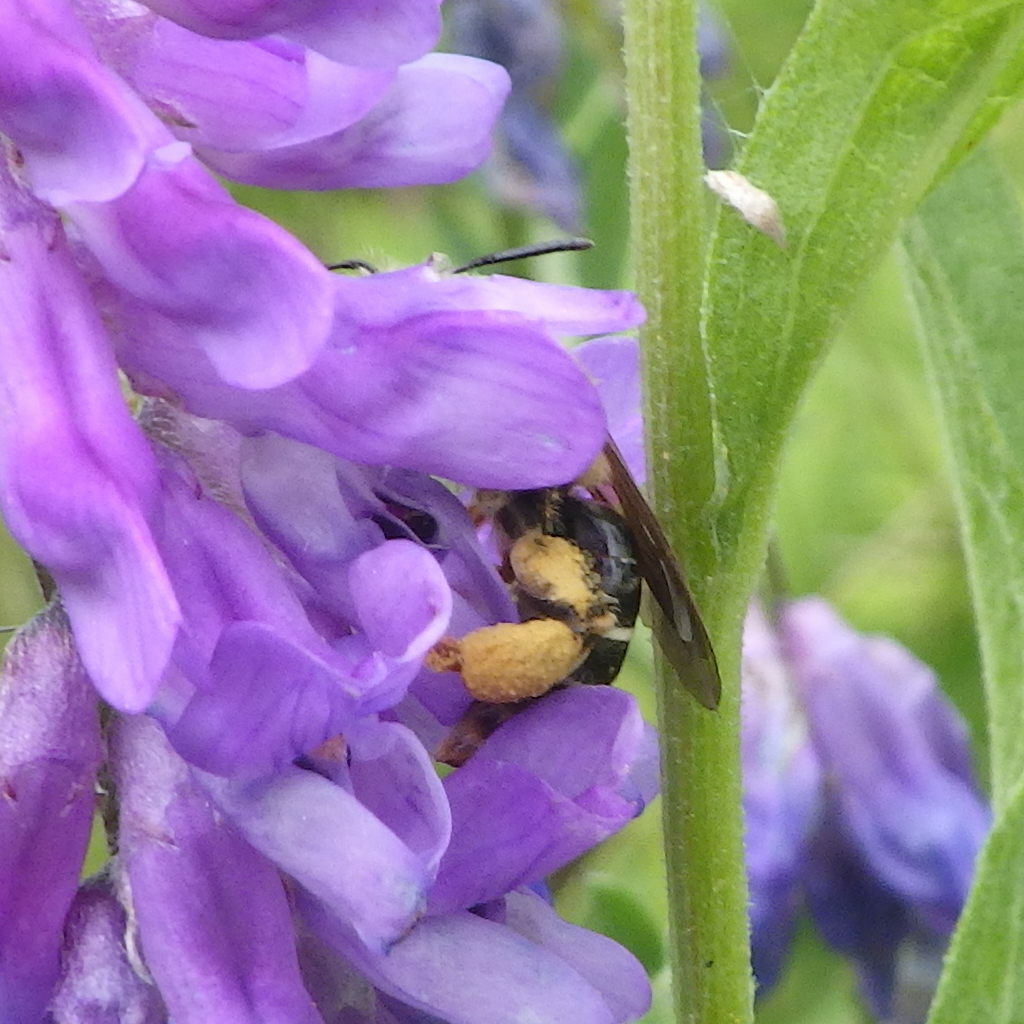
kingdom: Animalia
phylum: Arthropoda
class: Insecta
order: Hymenoptera
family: Andrenidae
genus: Andrena
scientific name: Andrena wilkella
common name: Wilke's mining bee
